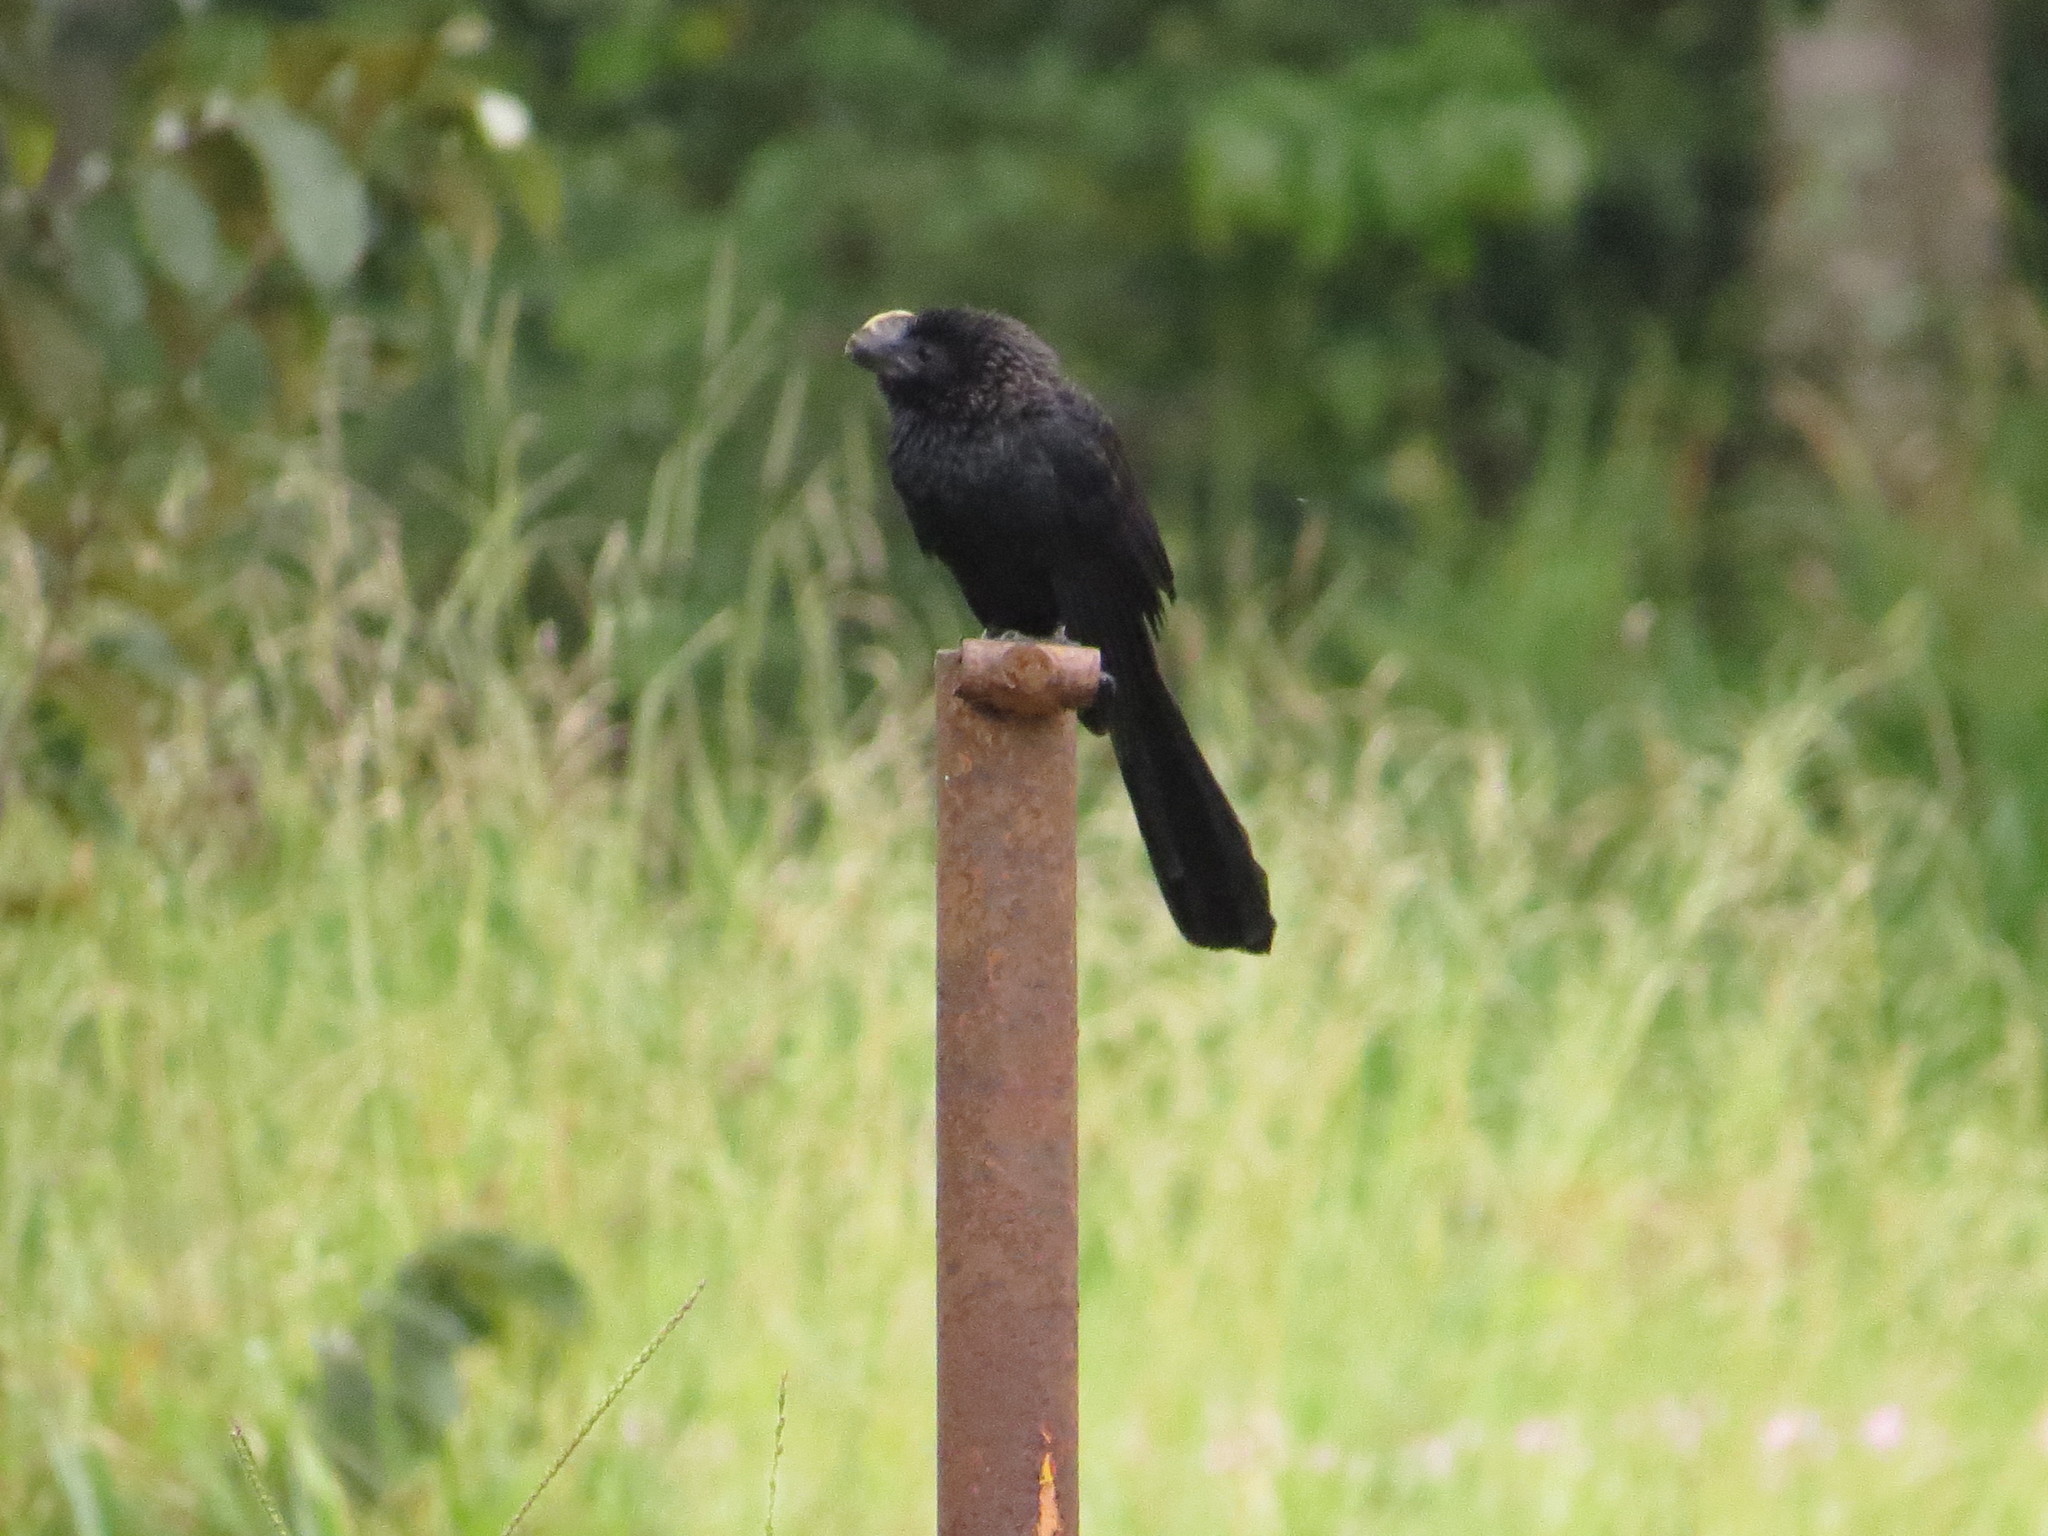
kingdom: Animalia
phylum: Chordata
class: Aves
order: Cuculiformes
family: Cuculidae
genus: Crotophaga
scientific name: Crotophaga ani
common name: Smooth-billed ani
